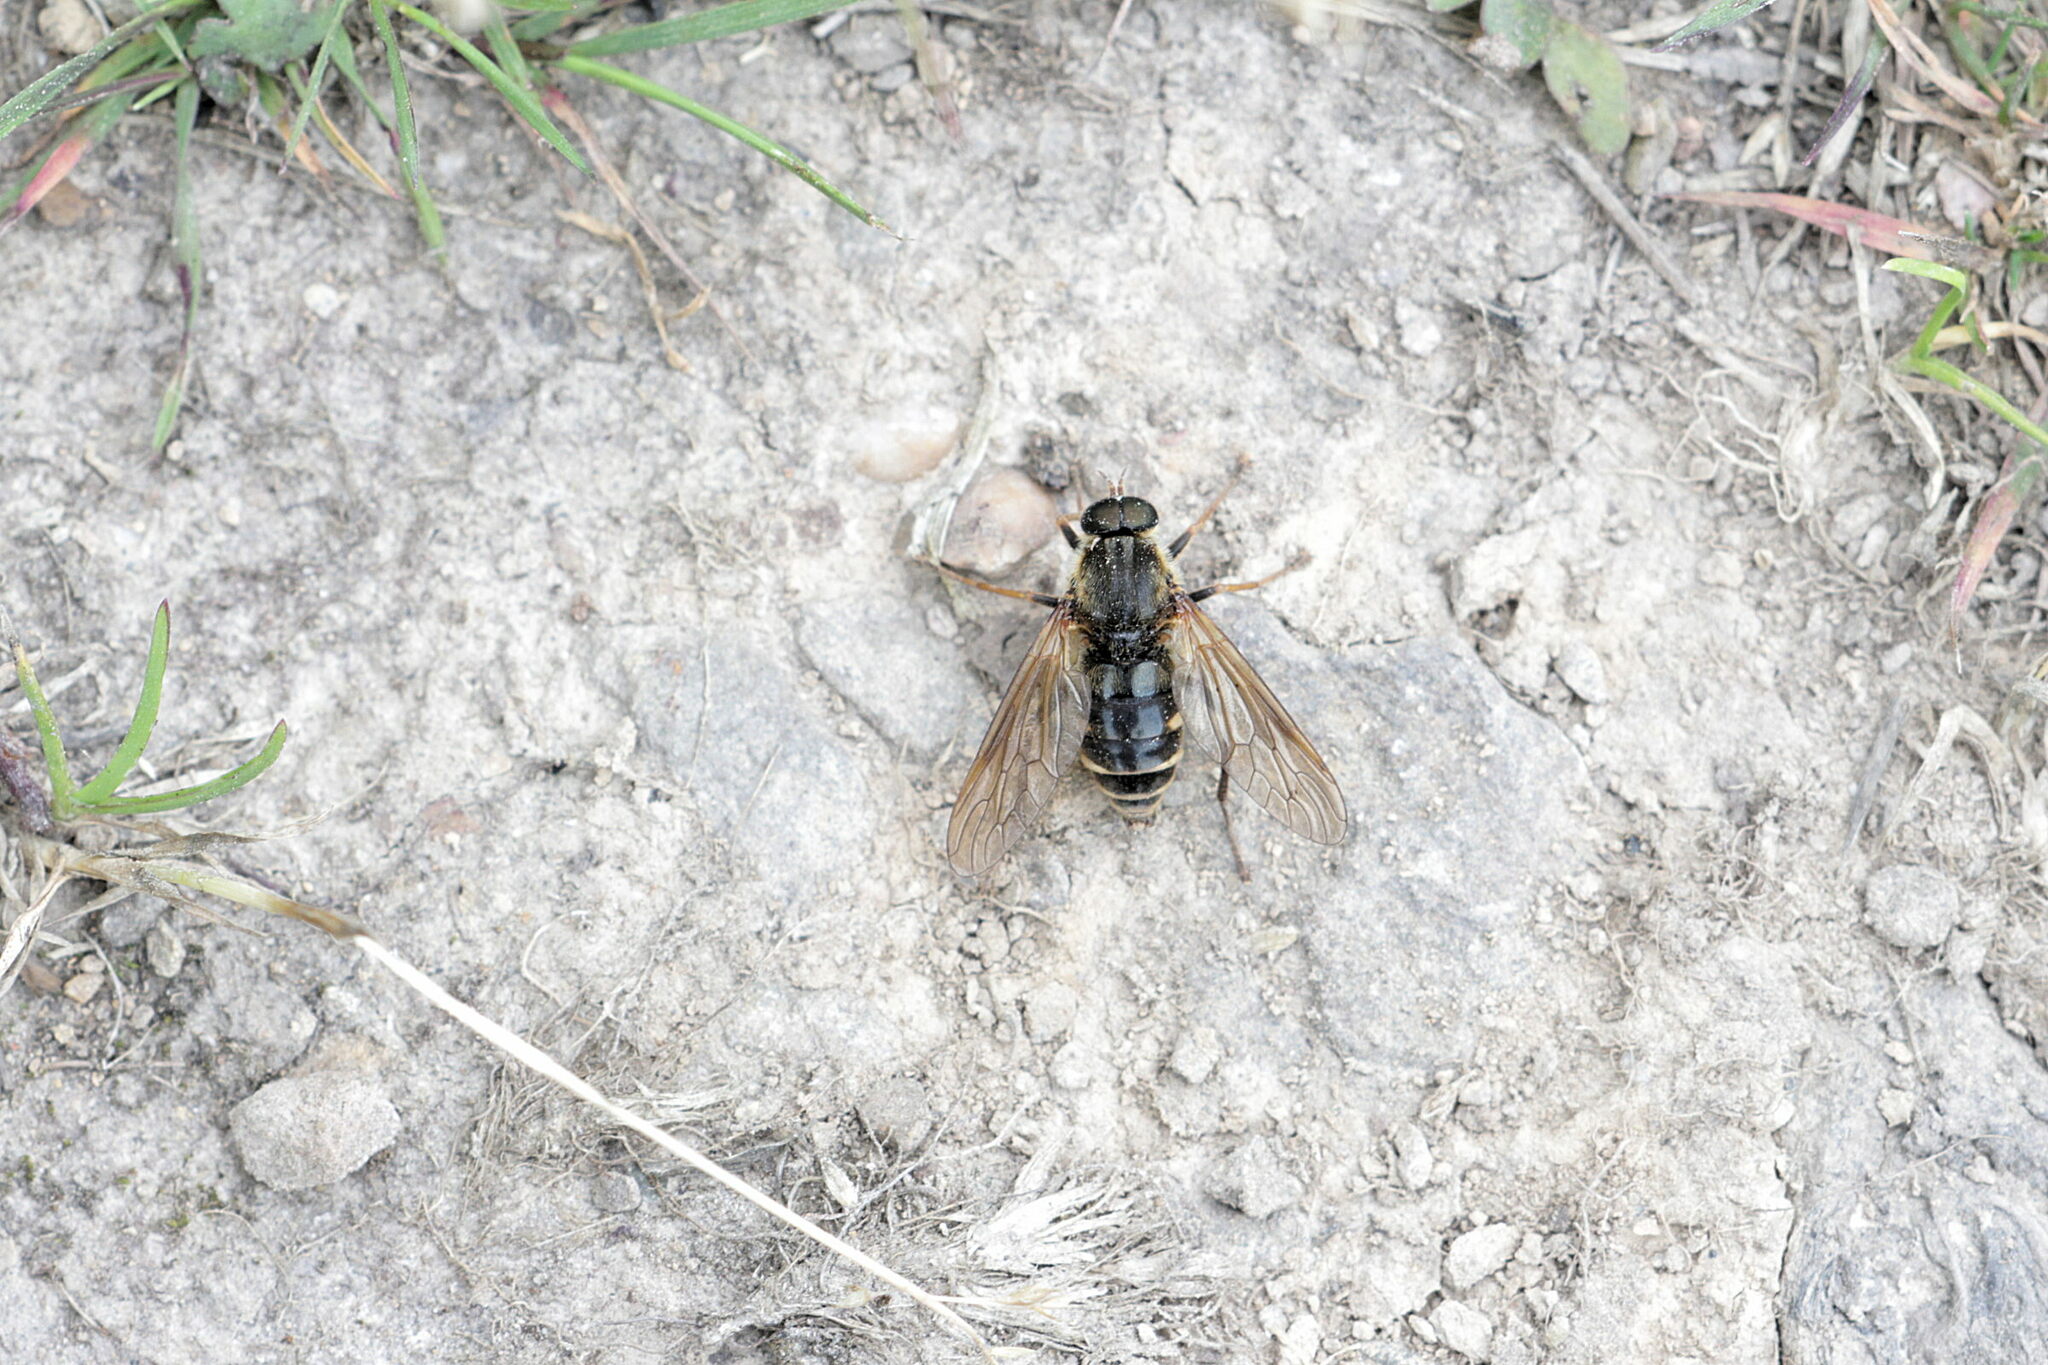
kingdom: Animalia
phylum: Arthropoda
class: Insecta
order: Diptera
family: Xylophagidae
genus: Coenomyia
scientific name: Coenomyia ferruginea
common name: Stink fly
